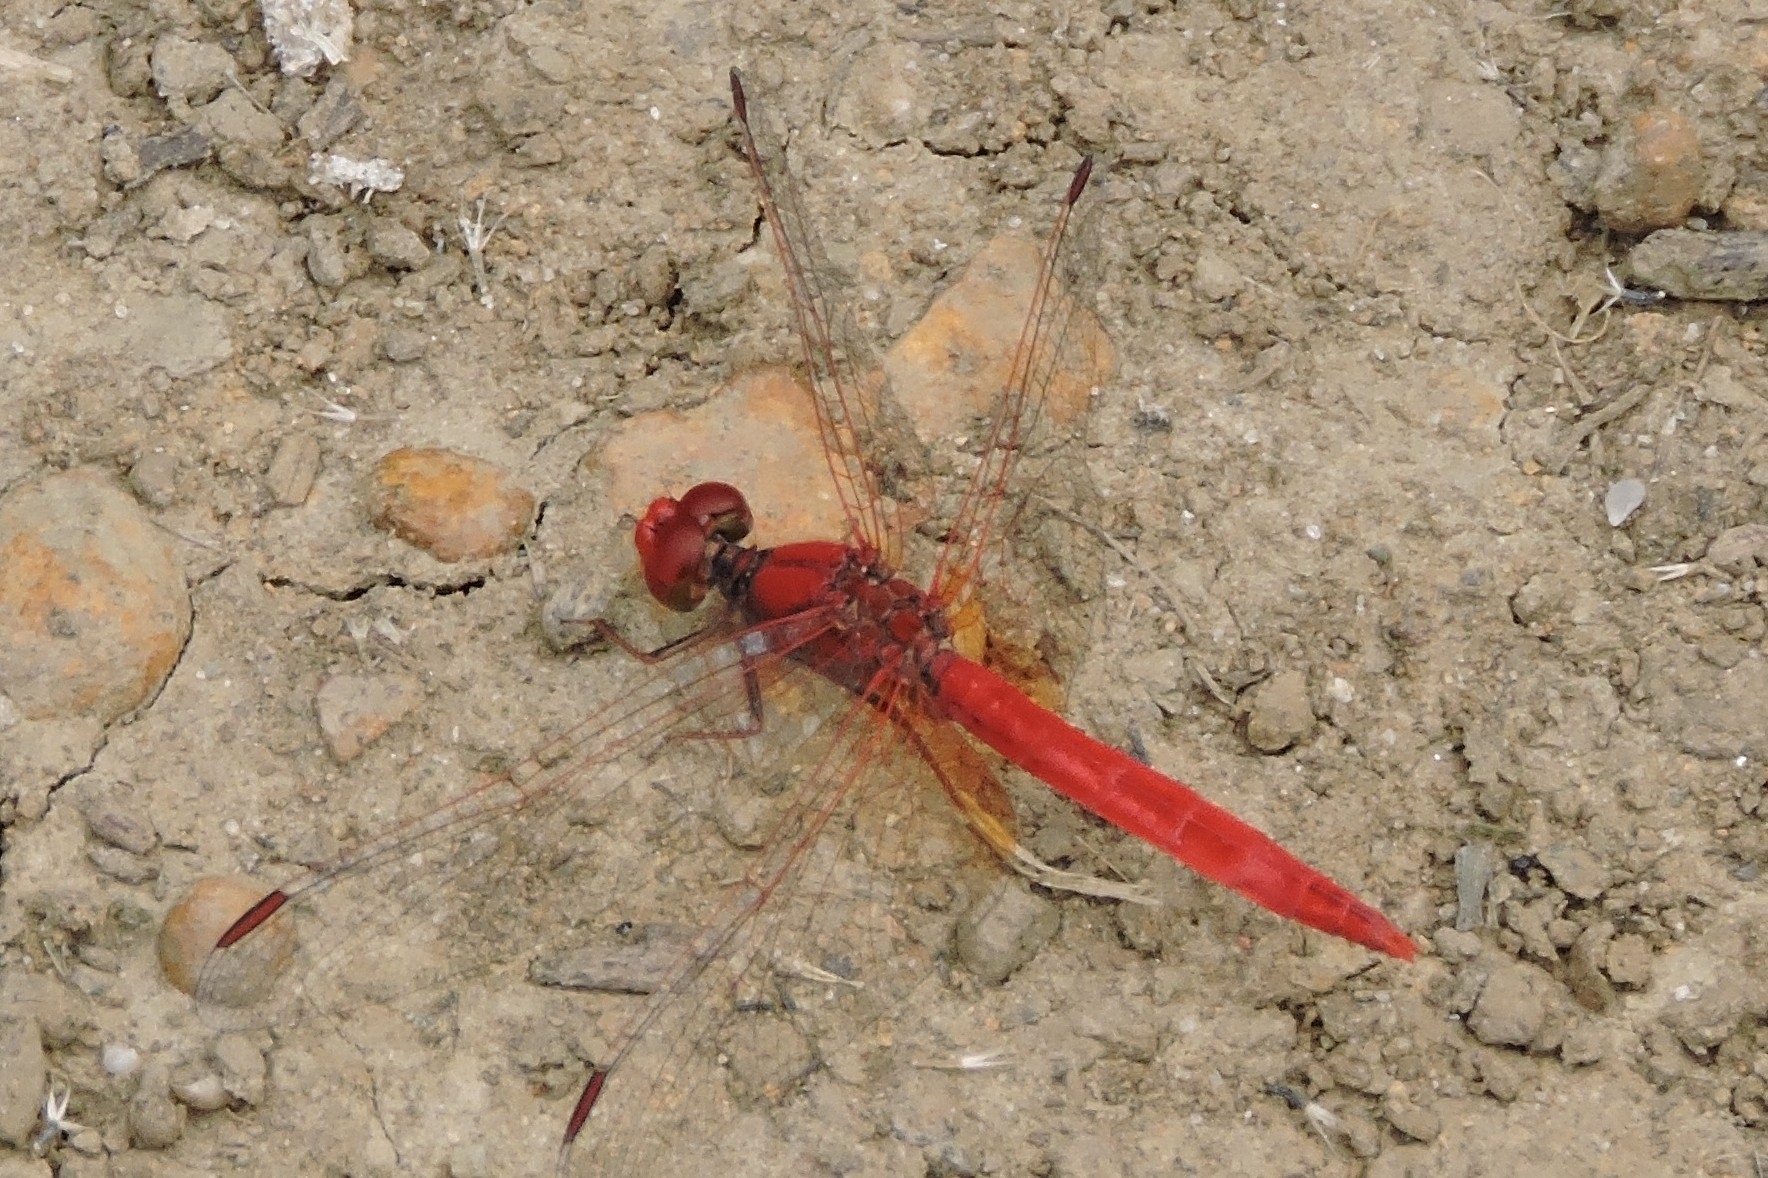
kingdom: Animalia
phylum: Arthropoda
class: Insecta
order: Odonata
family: Libellulidae
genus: Diplacodes
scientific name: Diplacodes haematodes
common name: Scarlet percher
